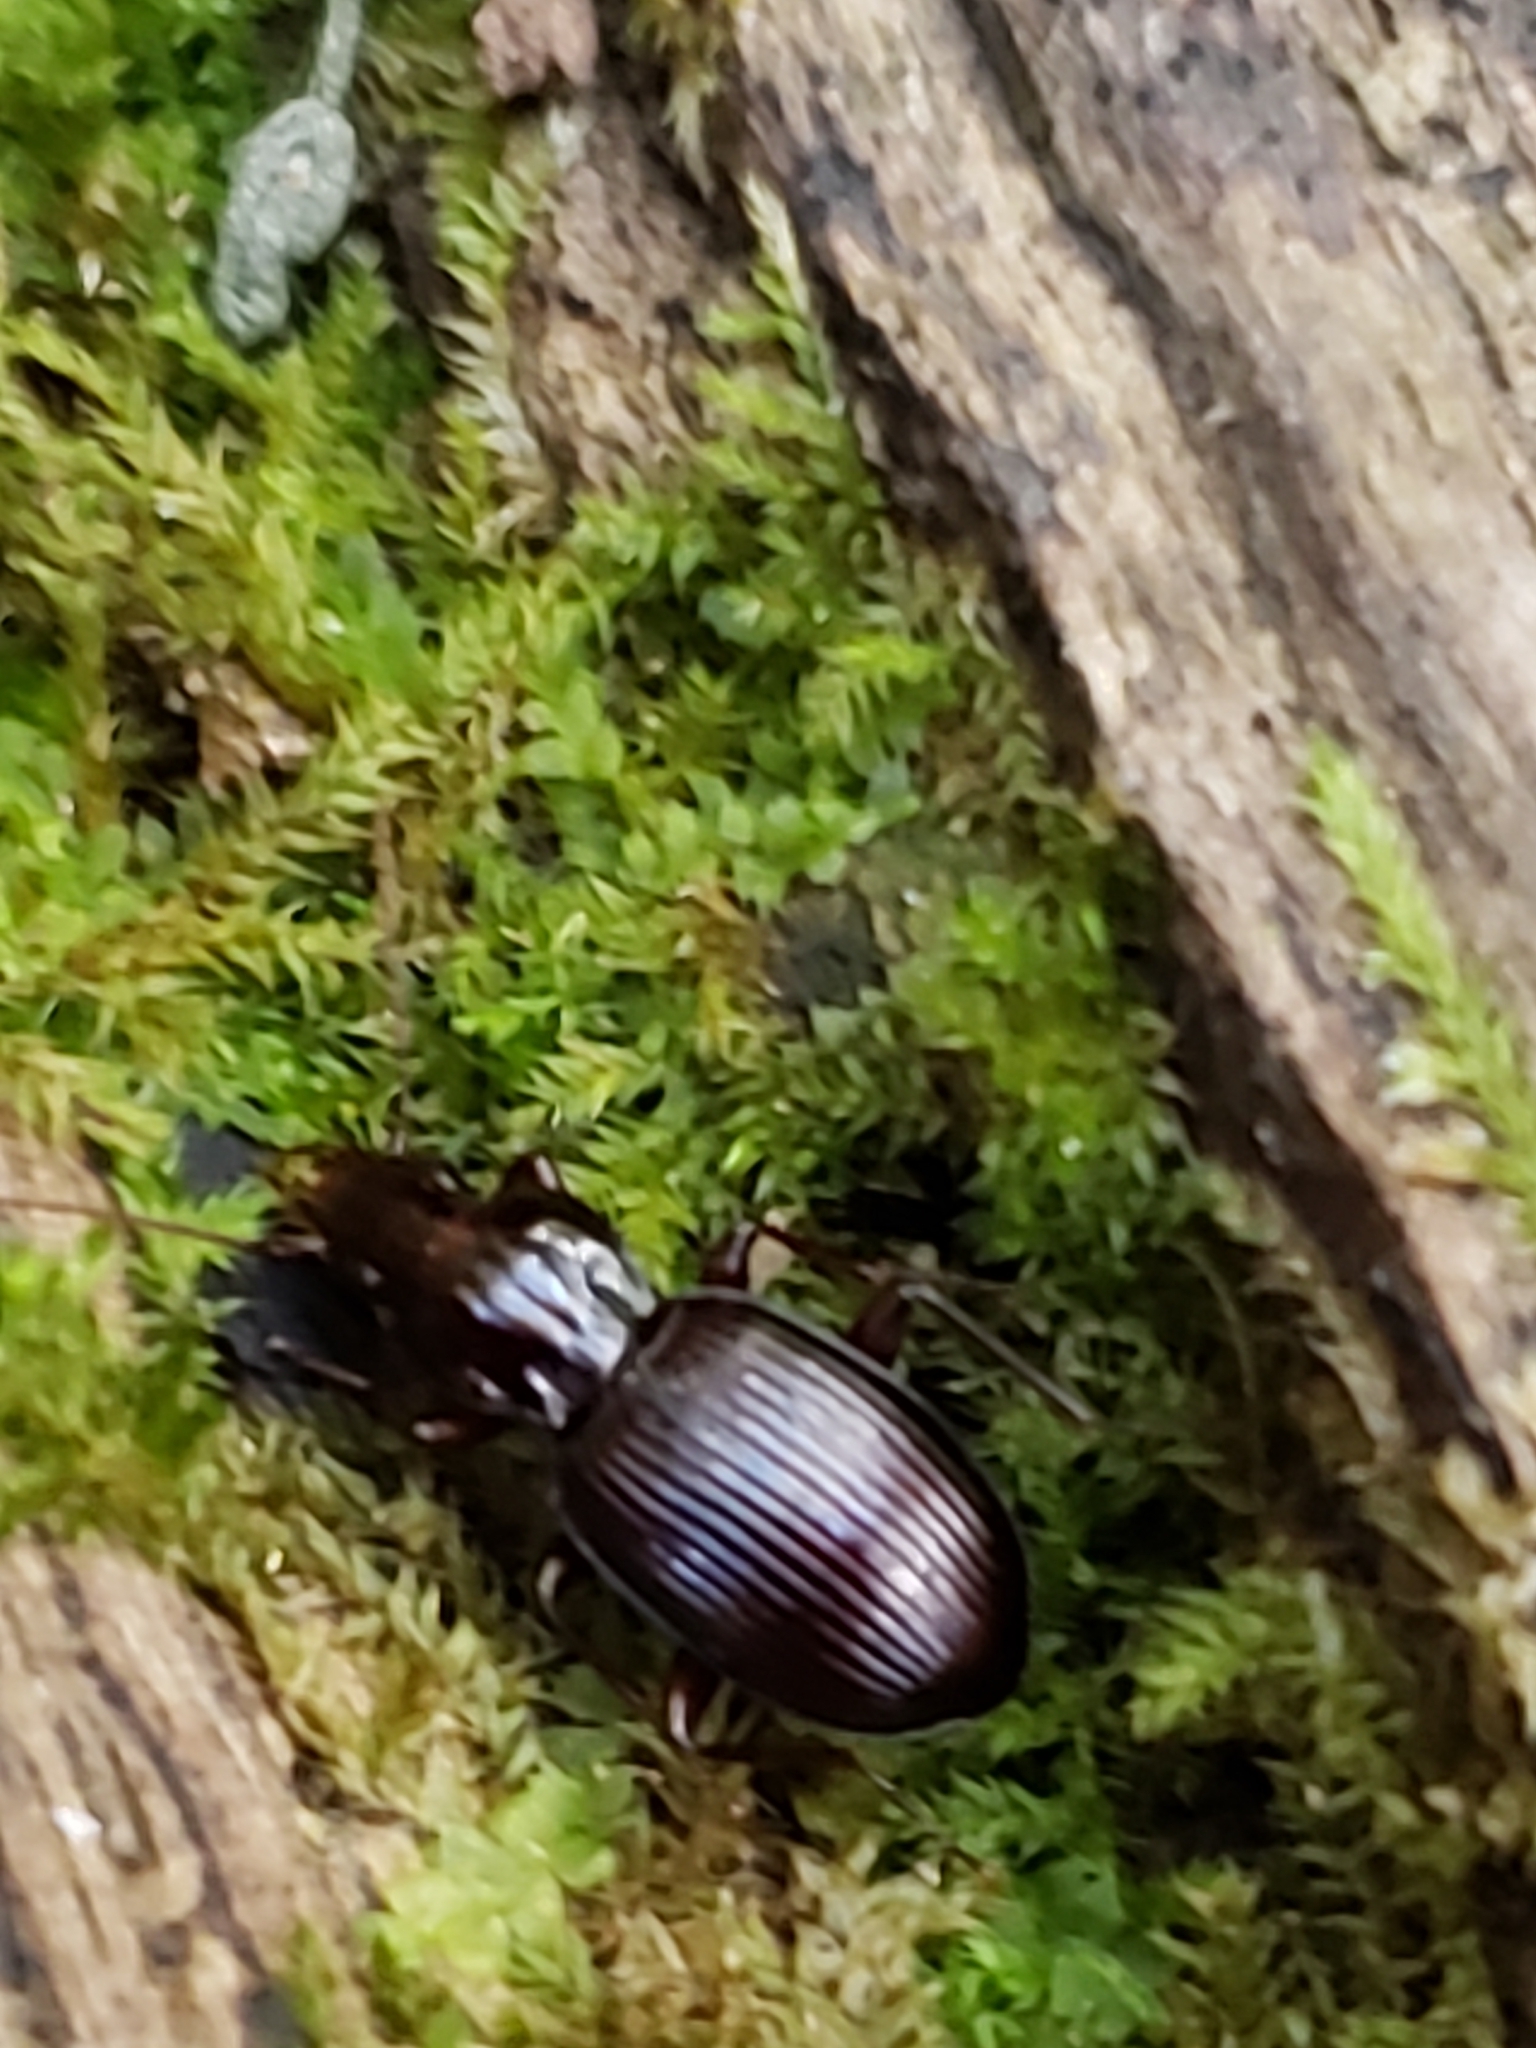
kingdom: Animalia
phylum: Arthropoda
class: Insecta
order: Coleoptera
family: Carabidae
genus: Gastrellarius
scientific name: Gastrellarius honestus
